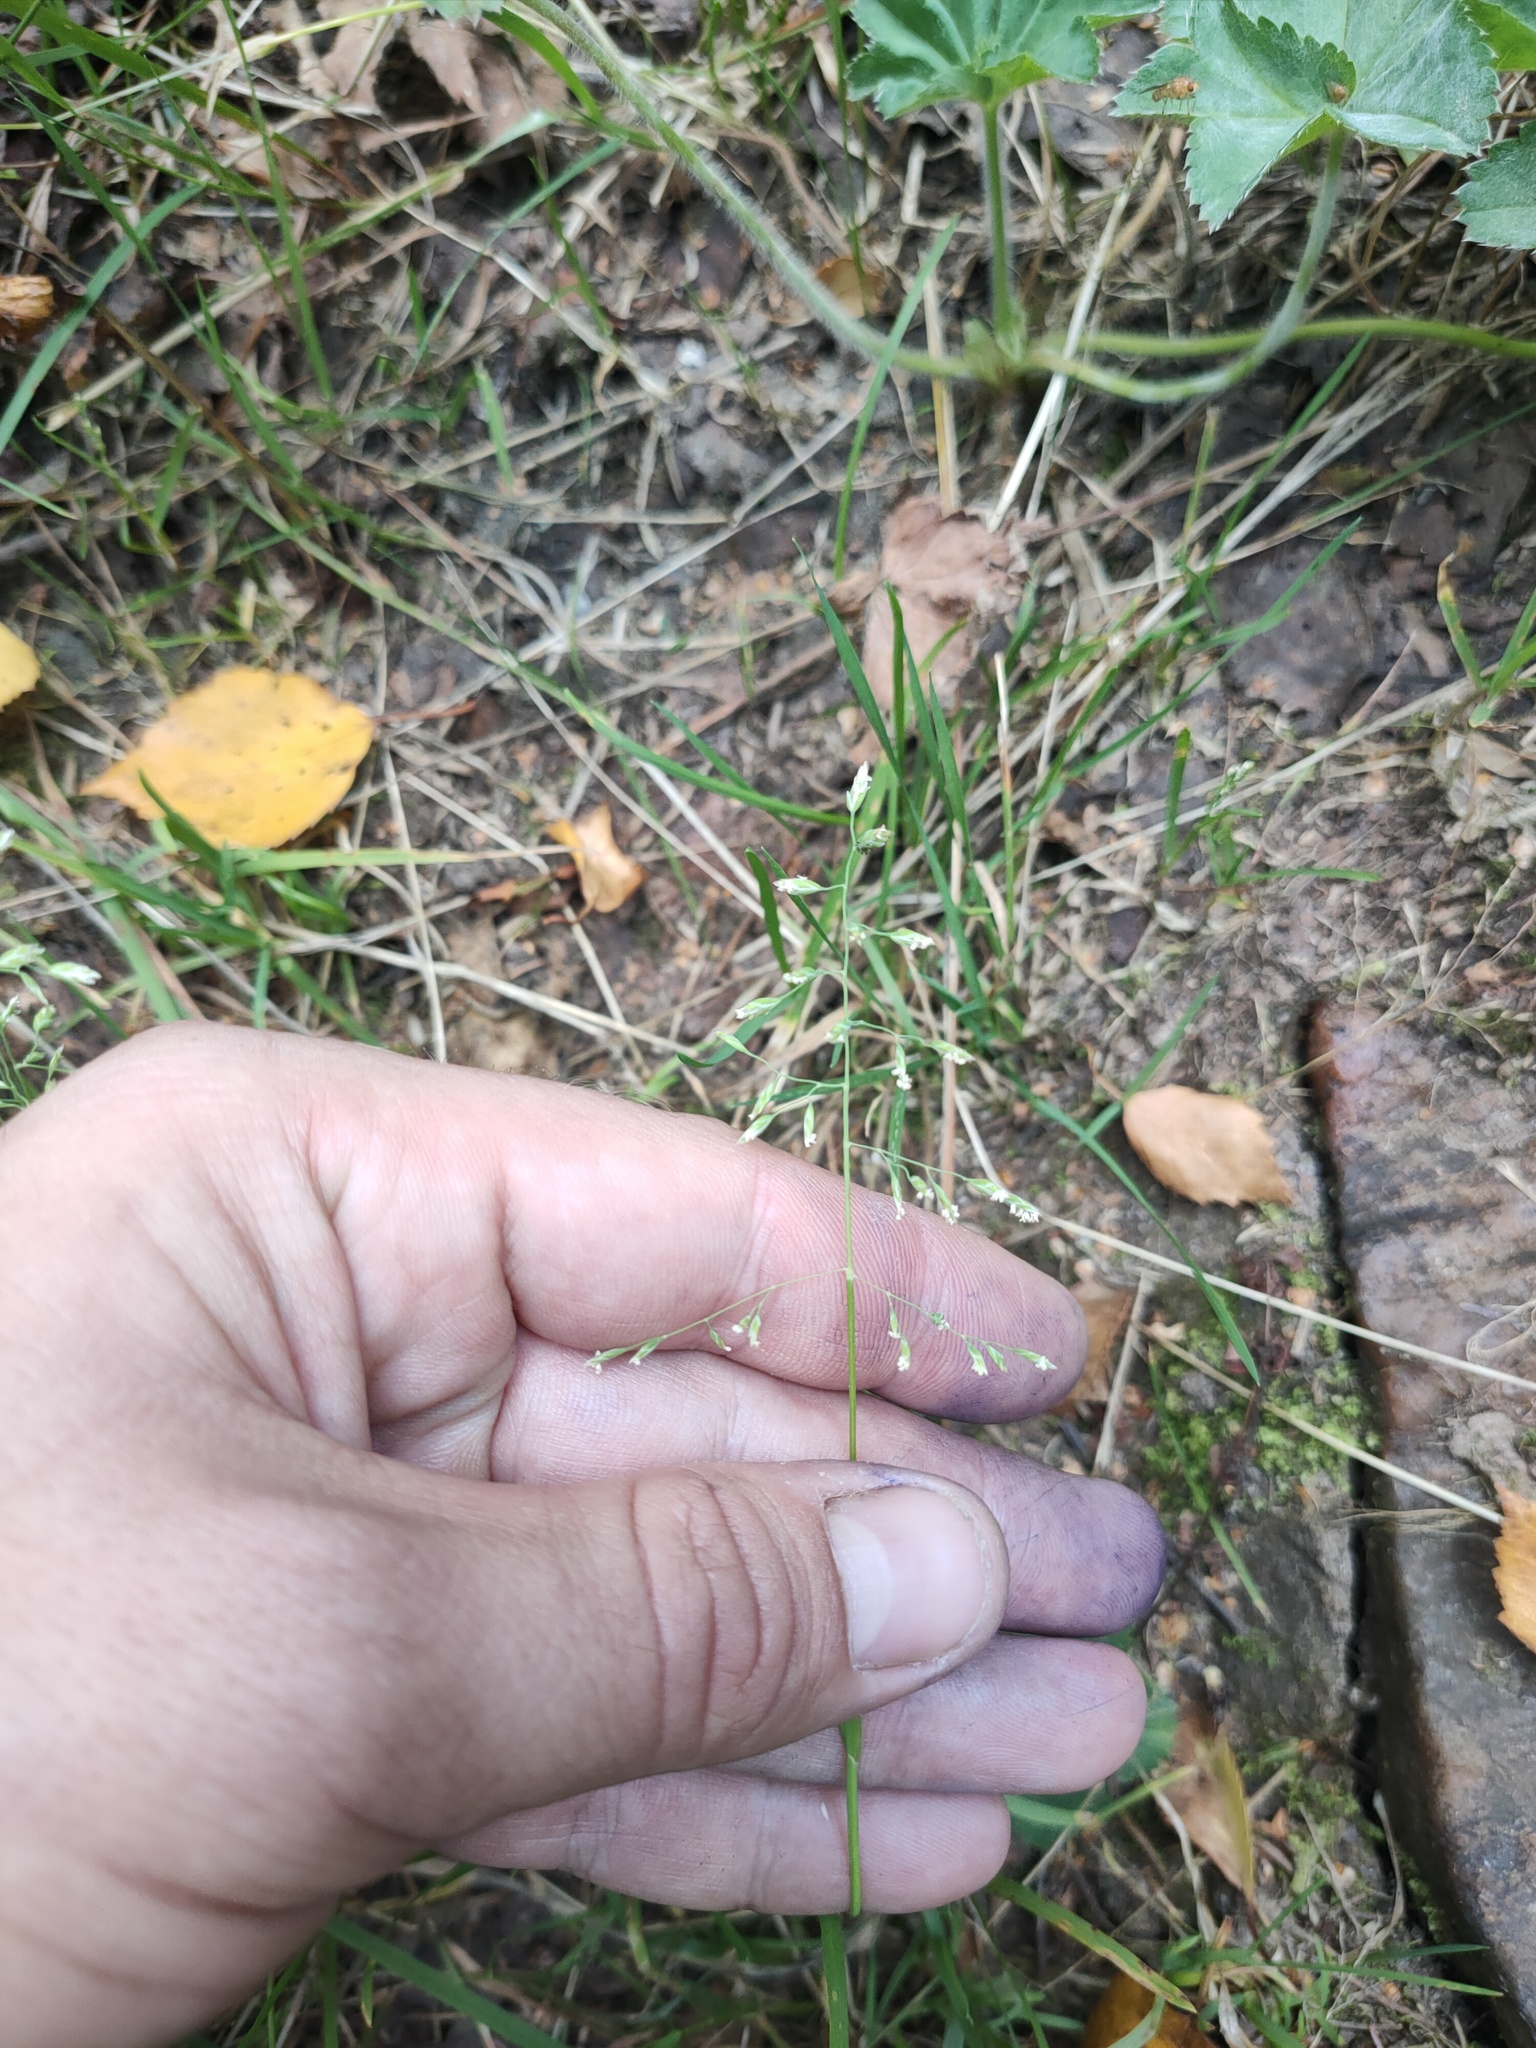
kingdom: Plantae
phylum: Tracheophyta
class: Liliopsida
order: Poales
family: Poaceae
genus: Poa
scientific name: Poa annua
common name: Annual bluegrass
